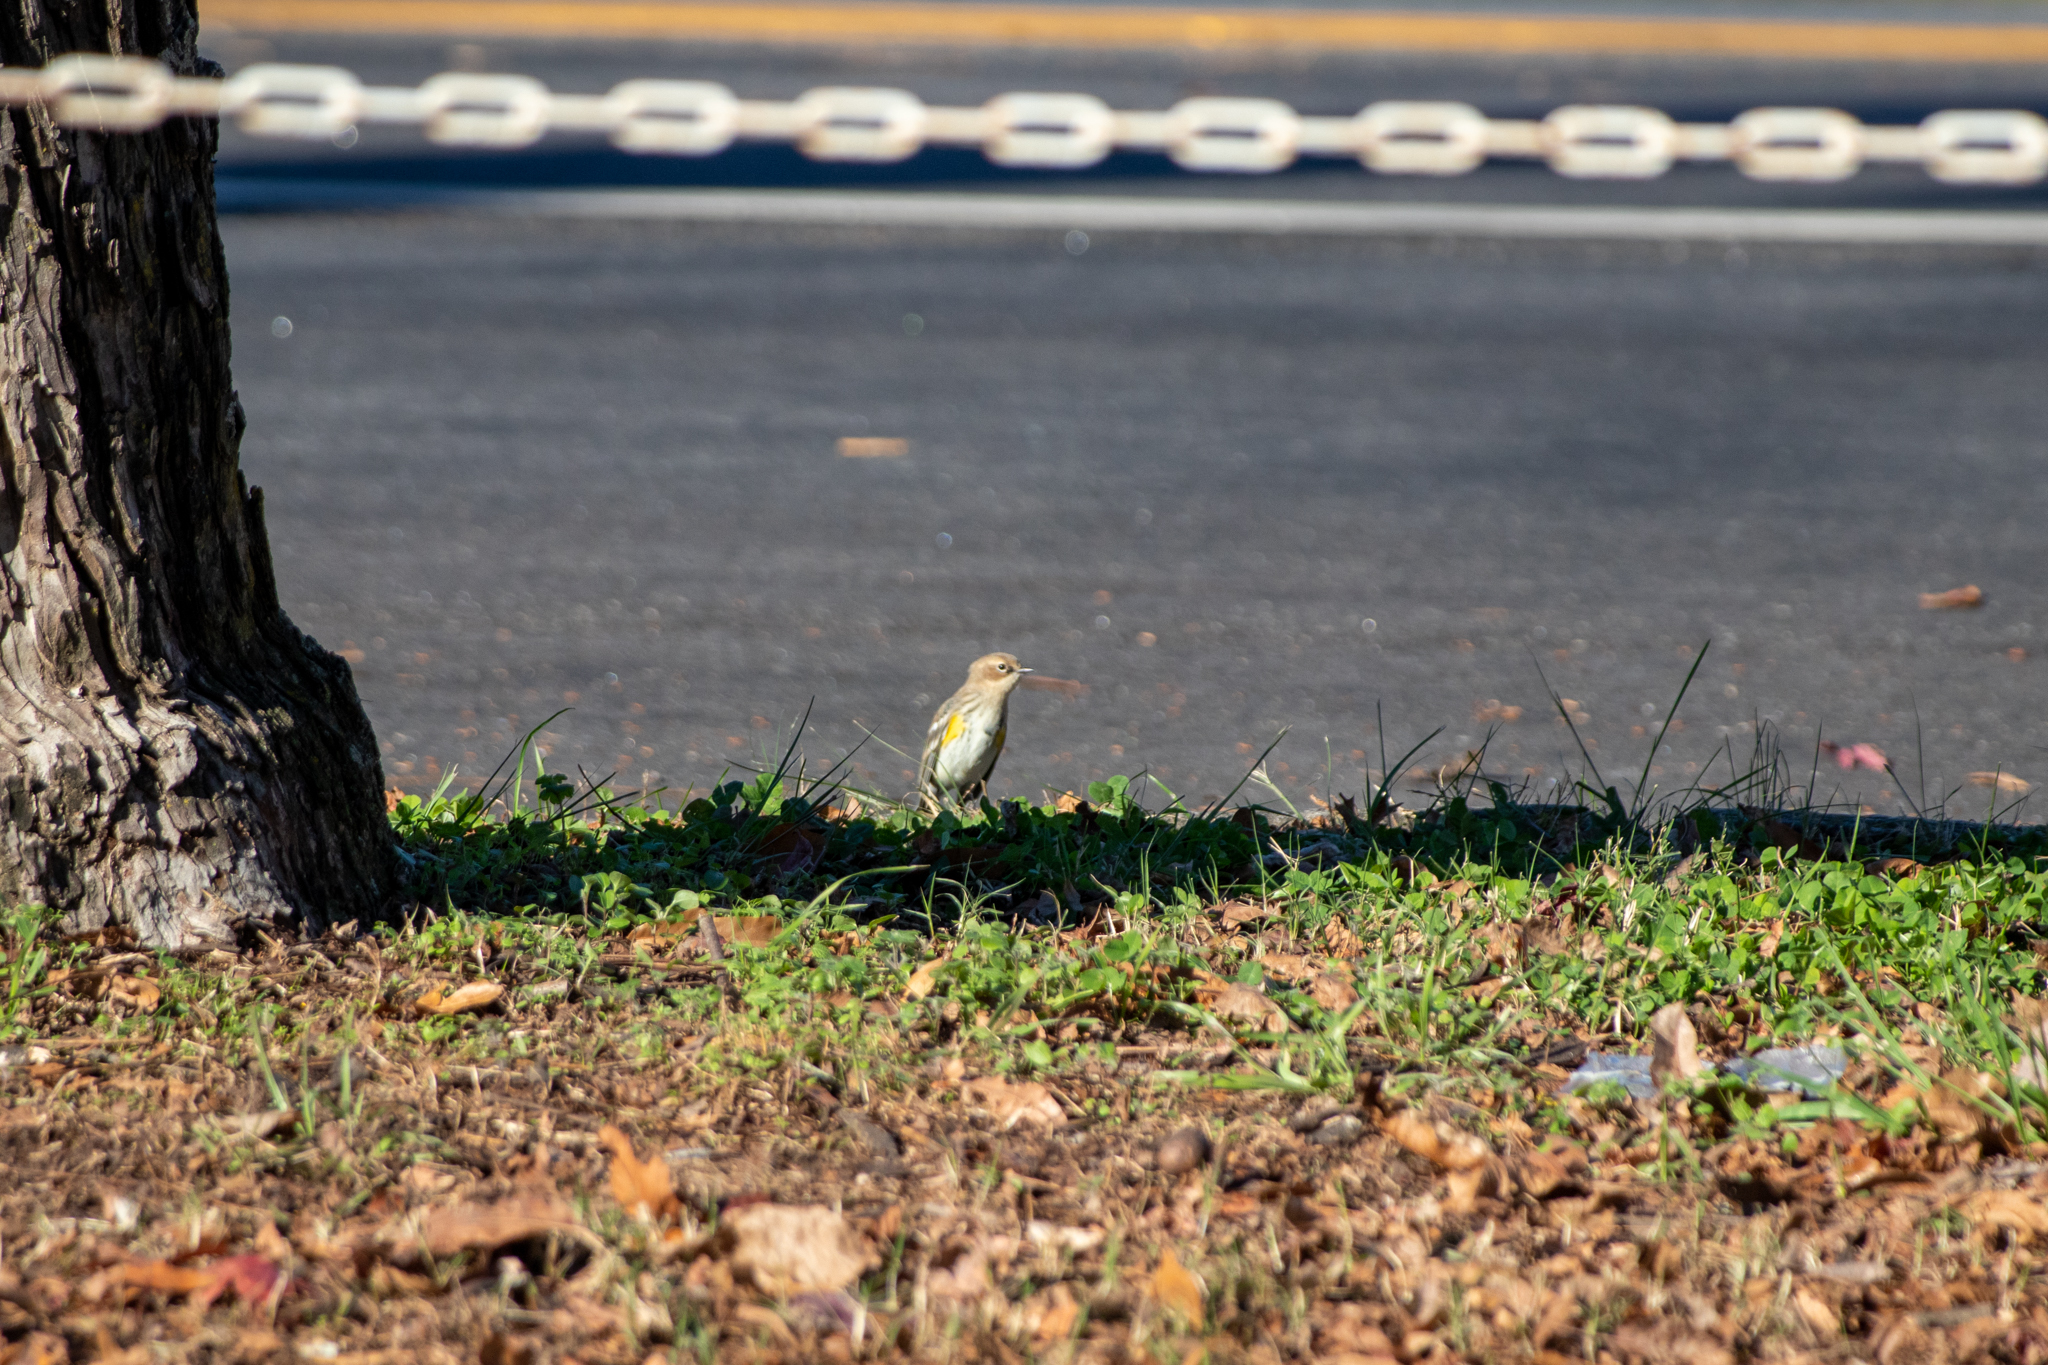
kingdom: Animalia
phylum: Chordata
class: Aves
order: Passeriformes
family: Parulidae
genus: Setophaga
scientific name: Setophaga coronata
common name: Myrtle warbler
